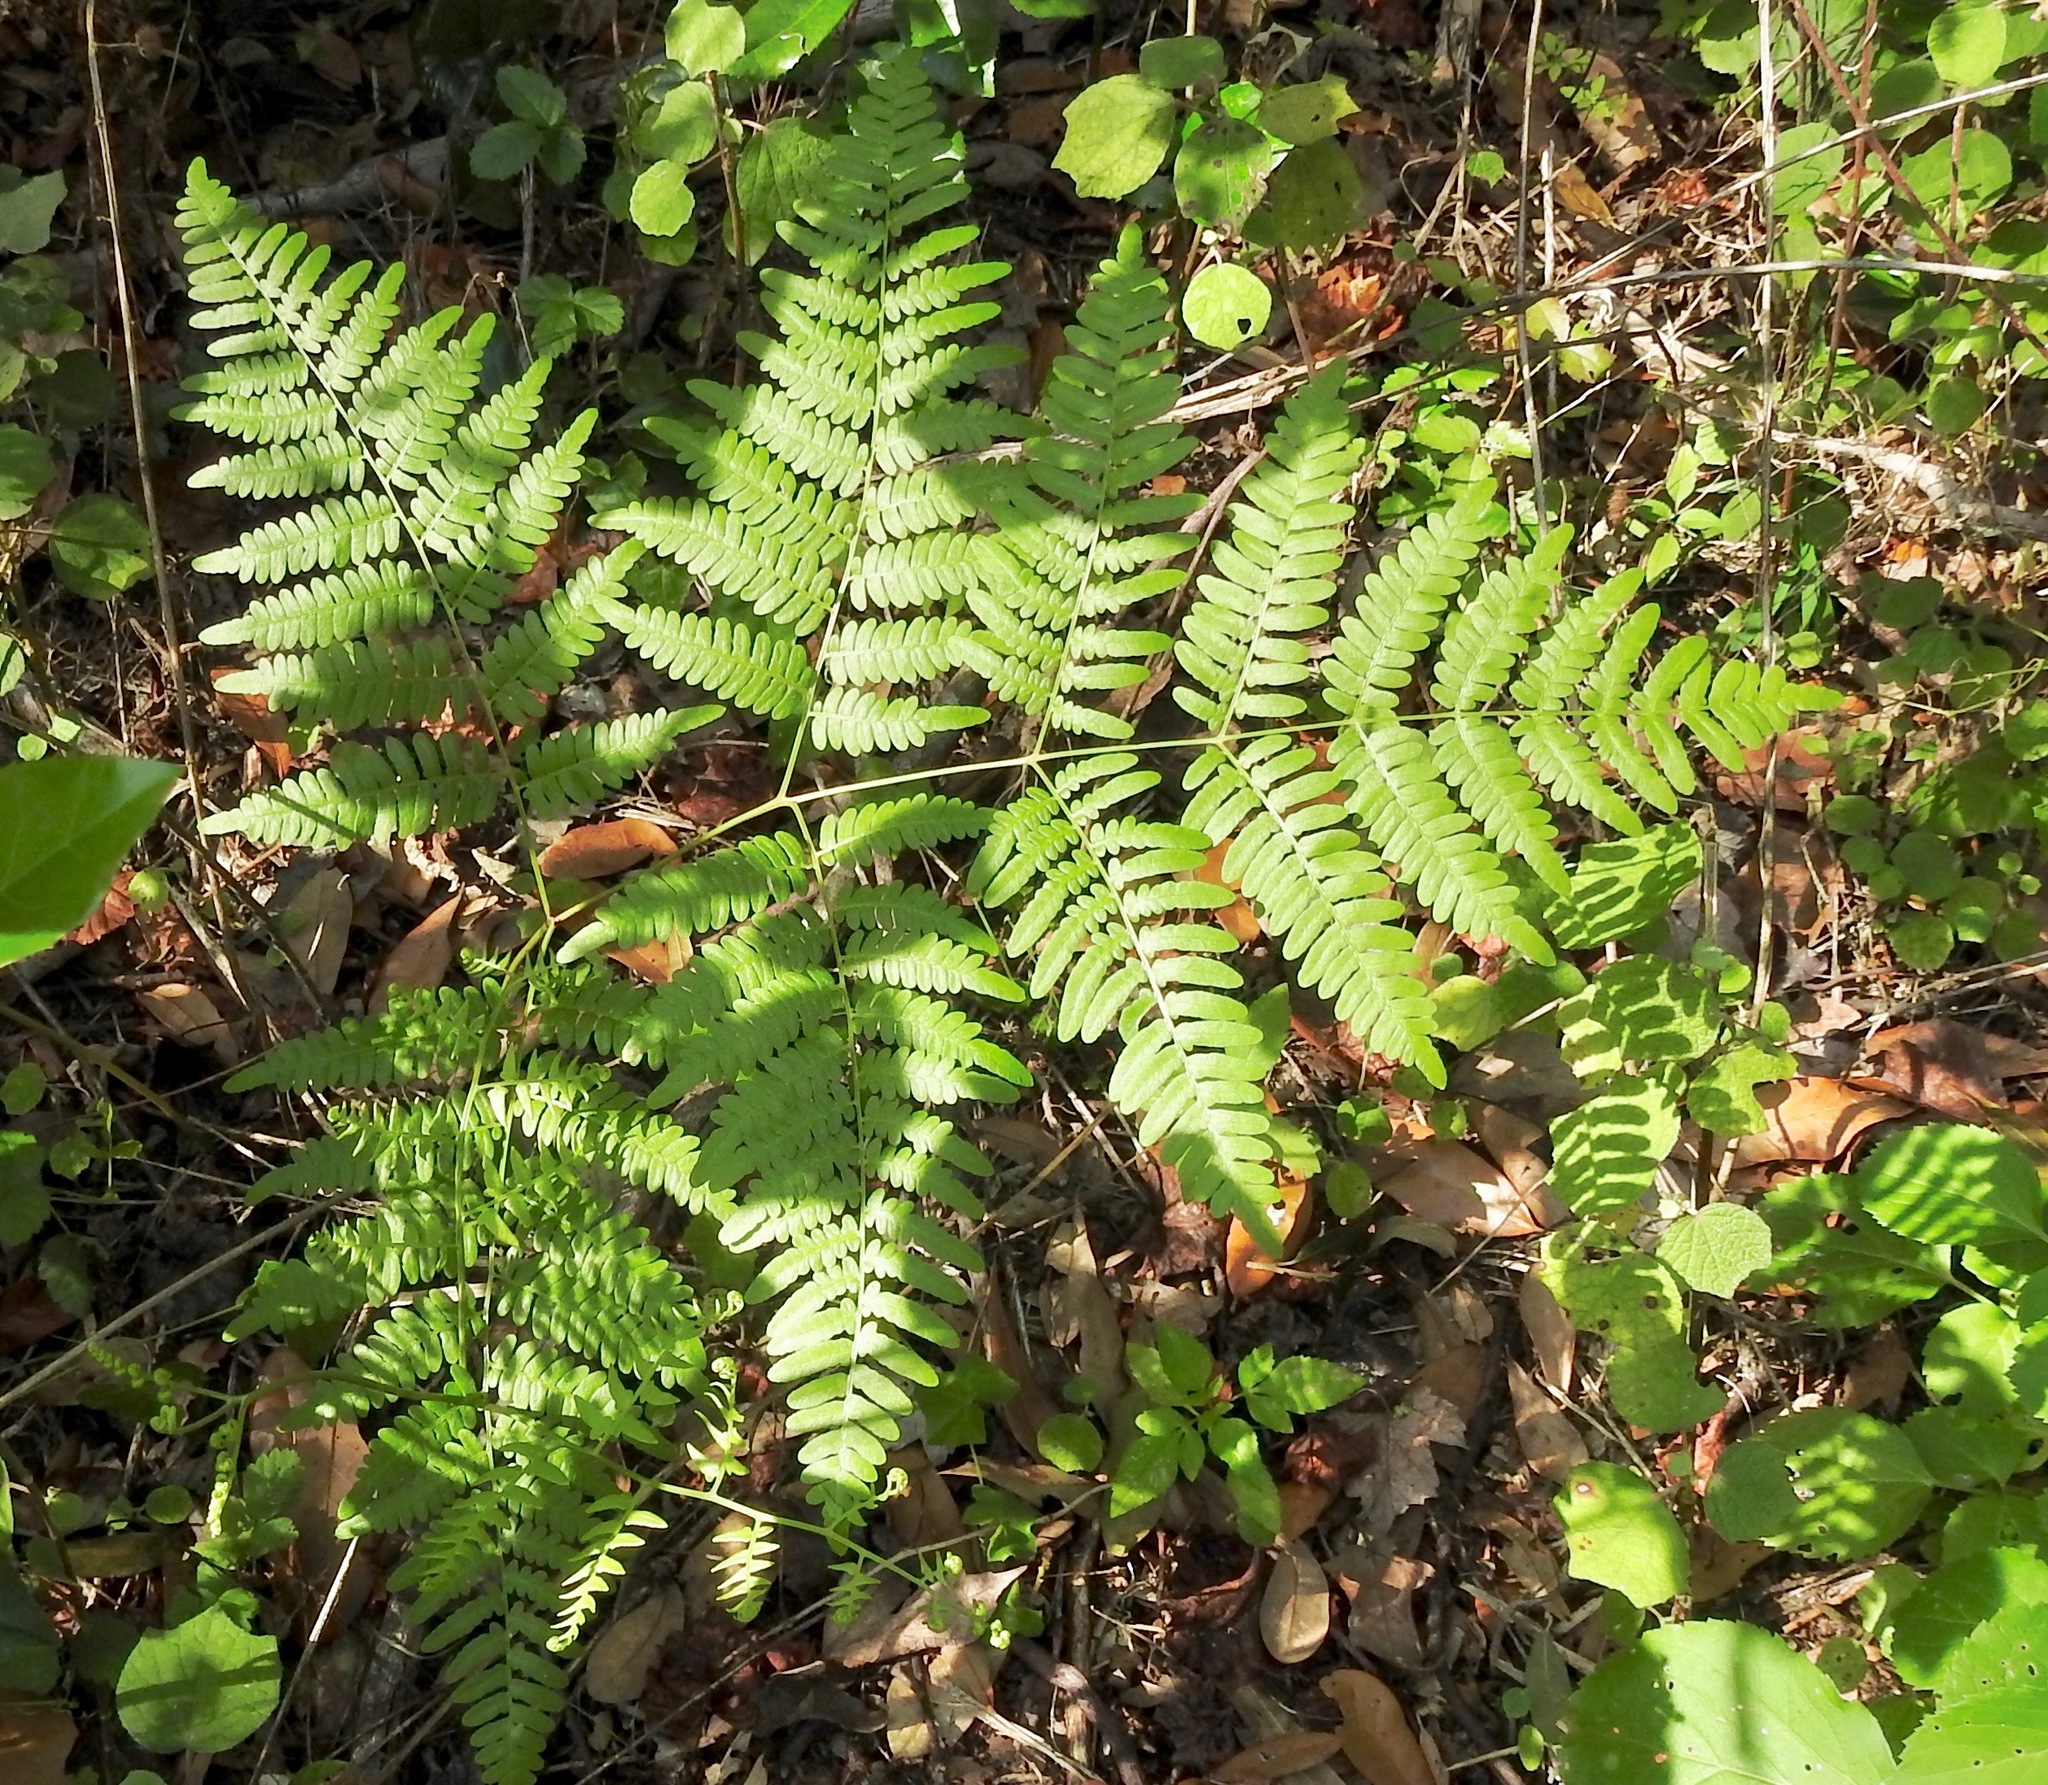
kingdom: Plantae
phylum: Tracheophyta
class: Polypodiopsida
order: Polypodiales
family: Dennstaedtiaceae
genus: Pteridium
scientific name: Pteridium
